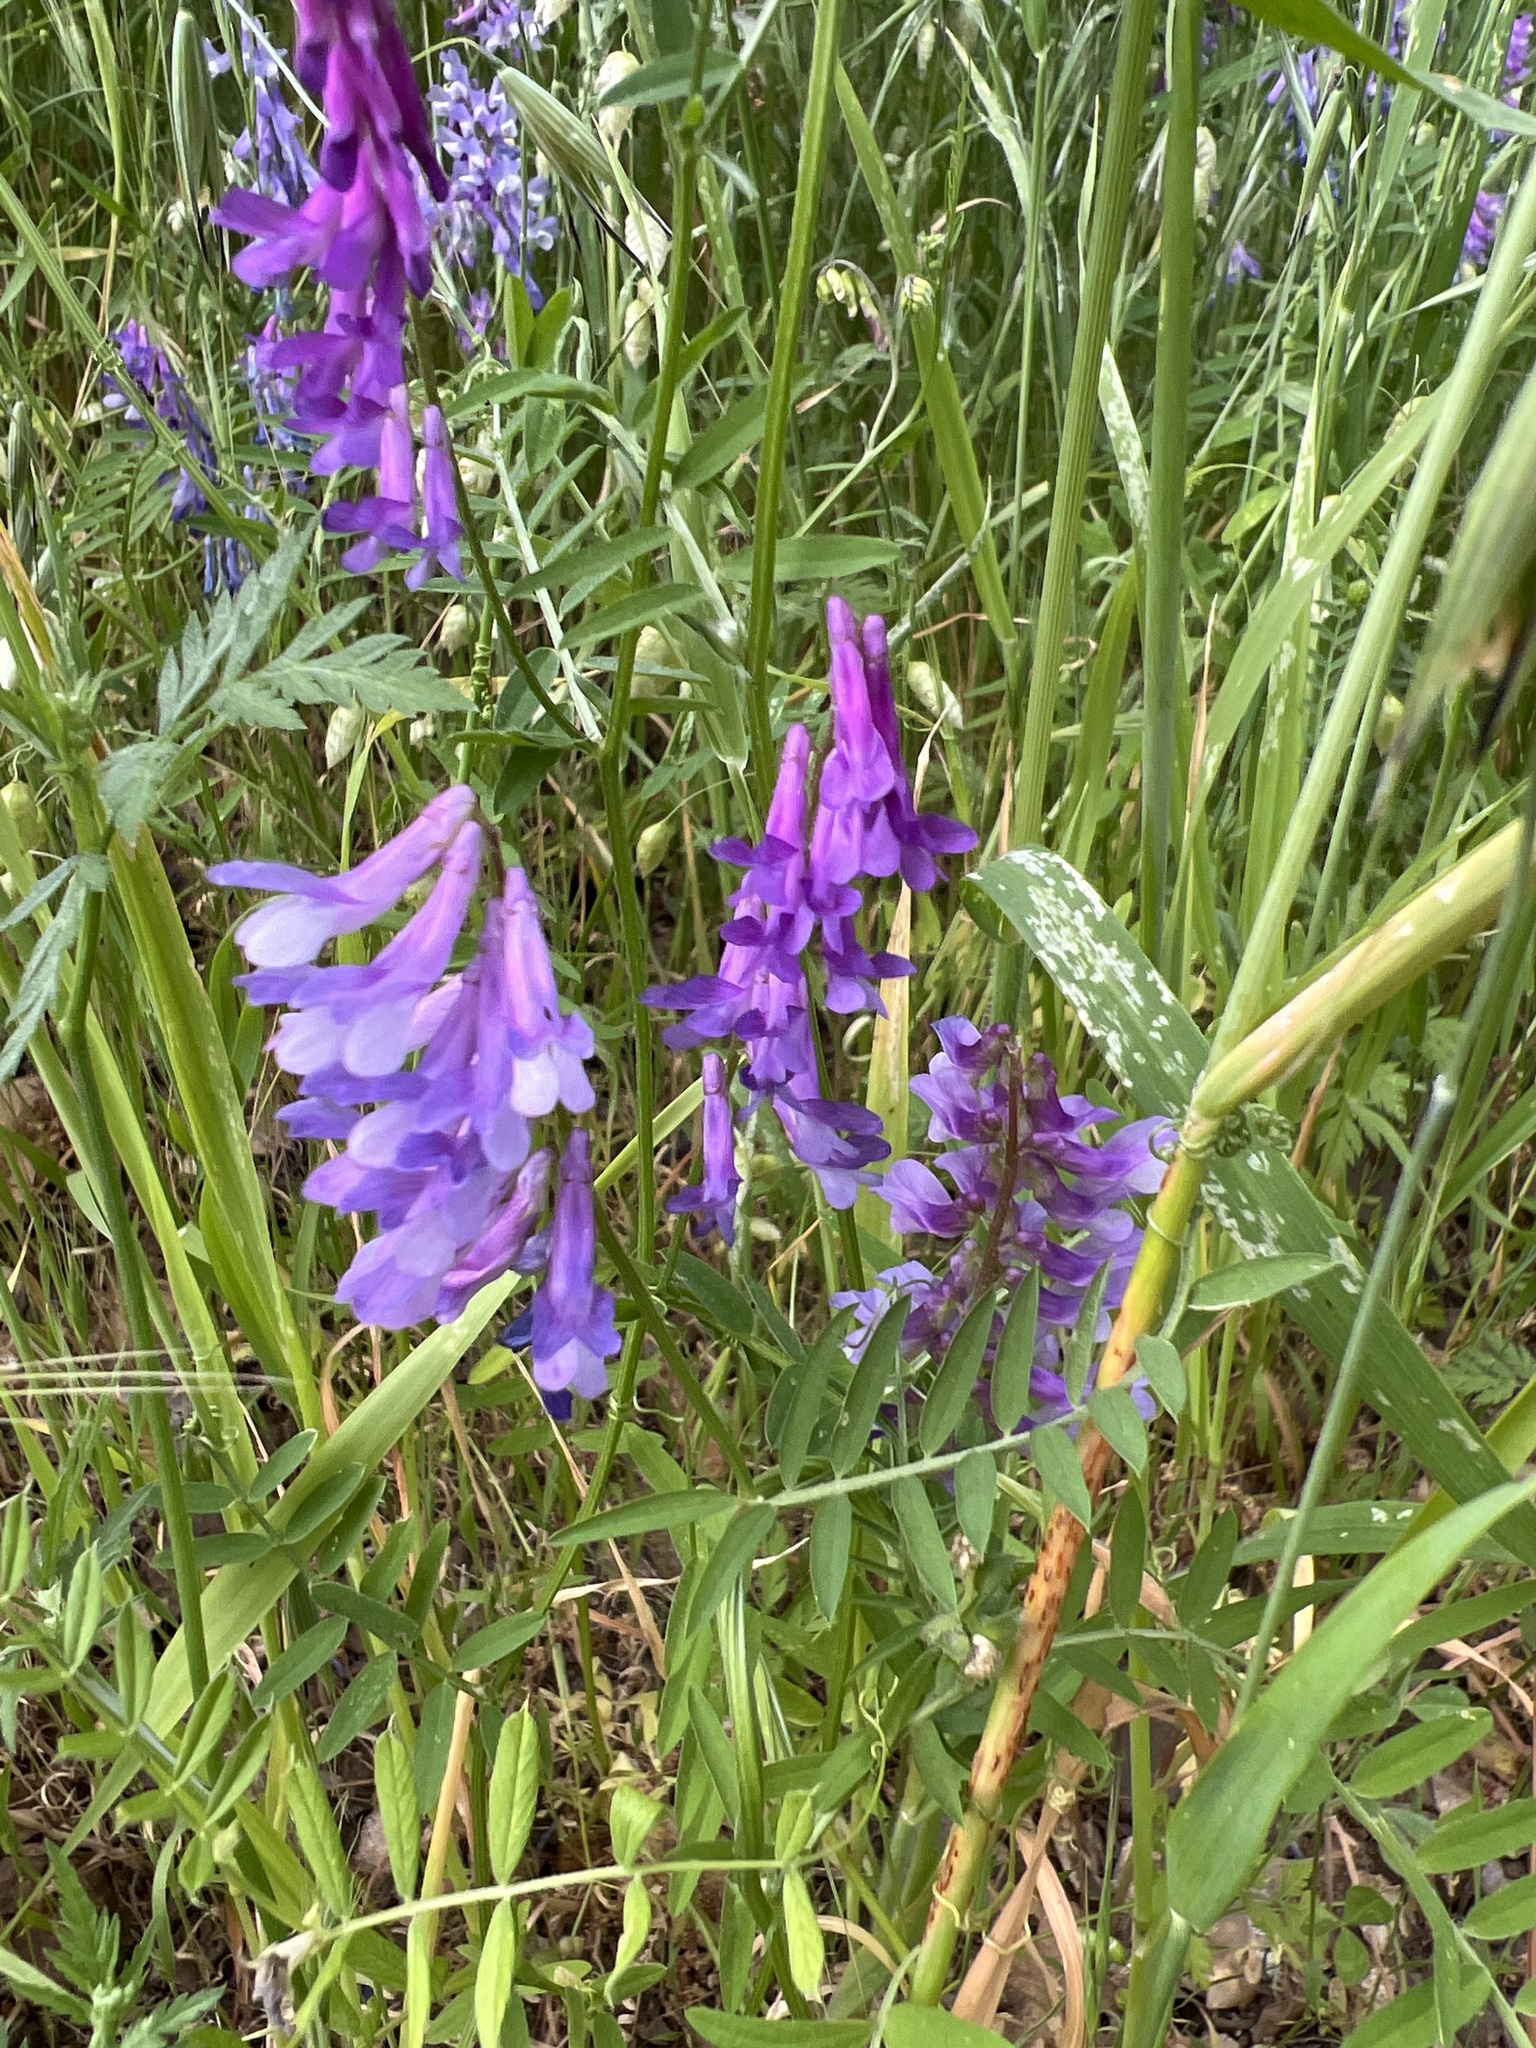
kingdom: Plantae
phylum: Tracheophyta
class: Magnoliopsida
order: Fabales
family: Fabaceae
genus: Vicia
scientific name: Vicia villosa
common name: Fodder vetch
